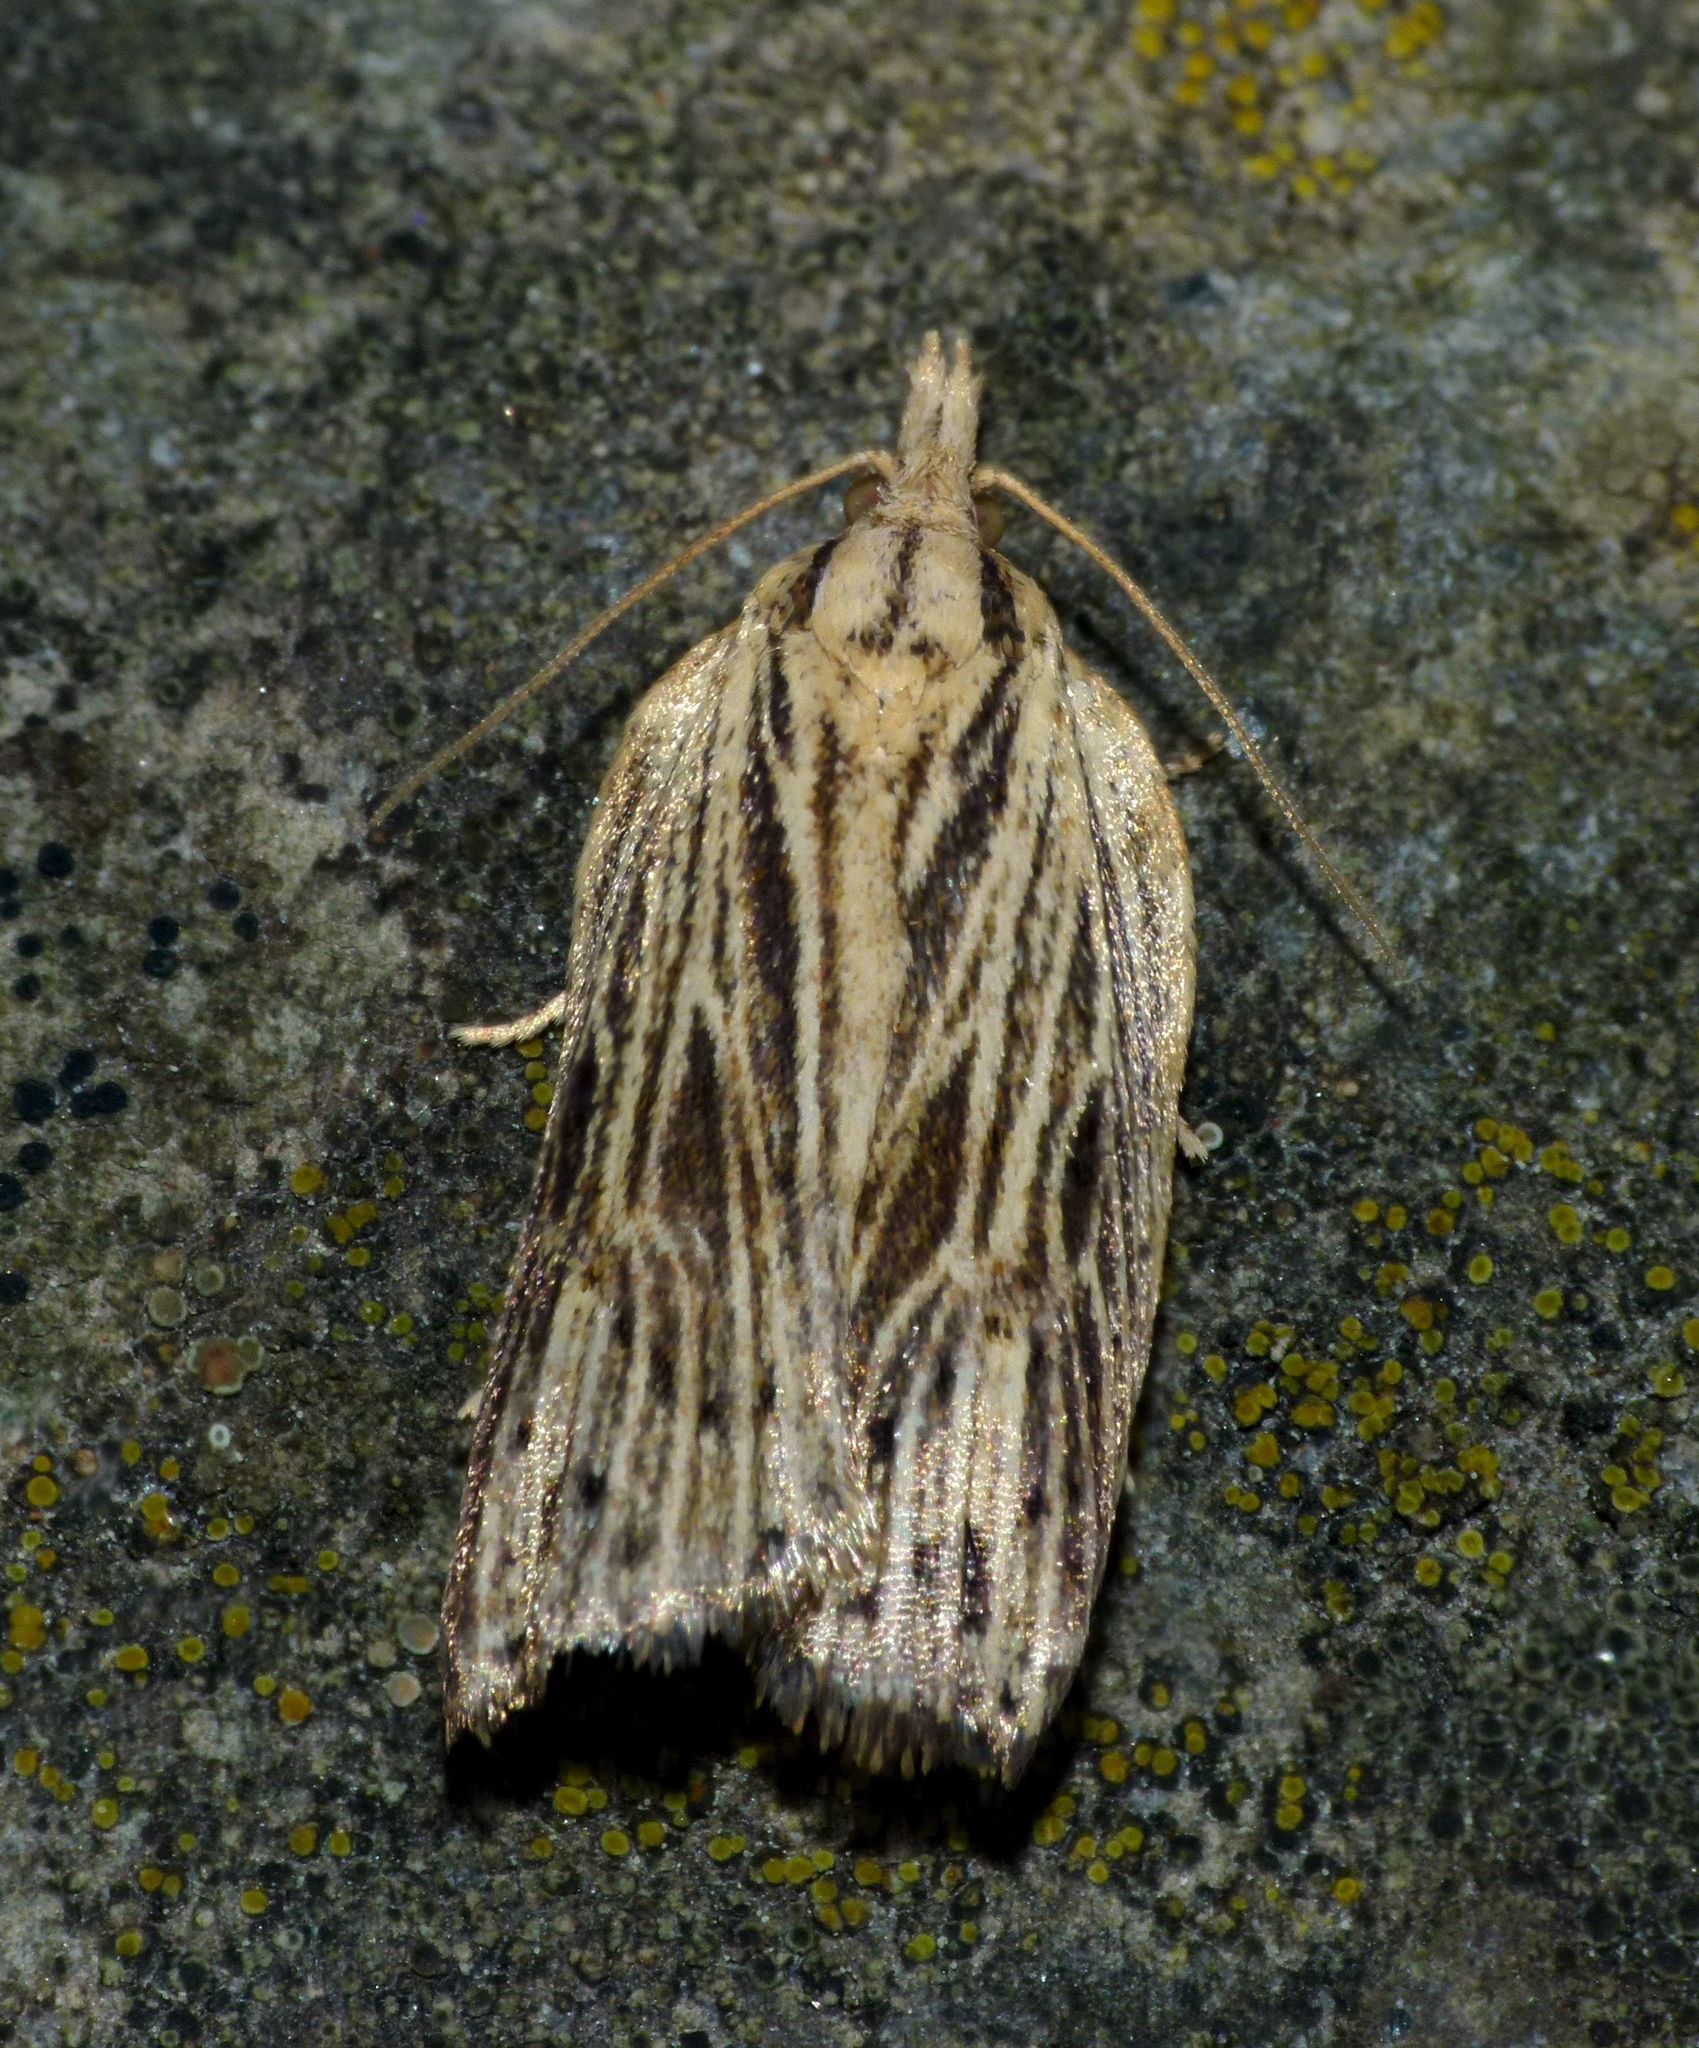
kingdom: Animalia
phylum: Arthropoda
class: Insecta
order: Lepidoptera
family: Tortricidae
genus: Planotortrix
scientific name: Planotortrix notophaea
